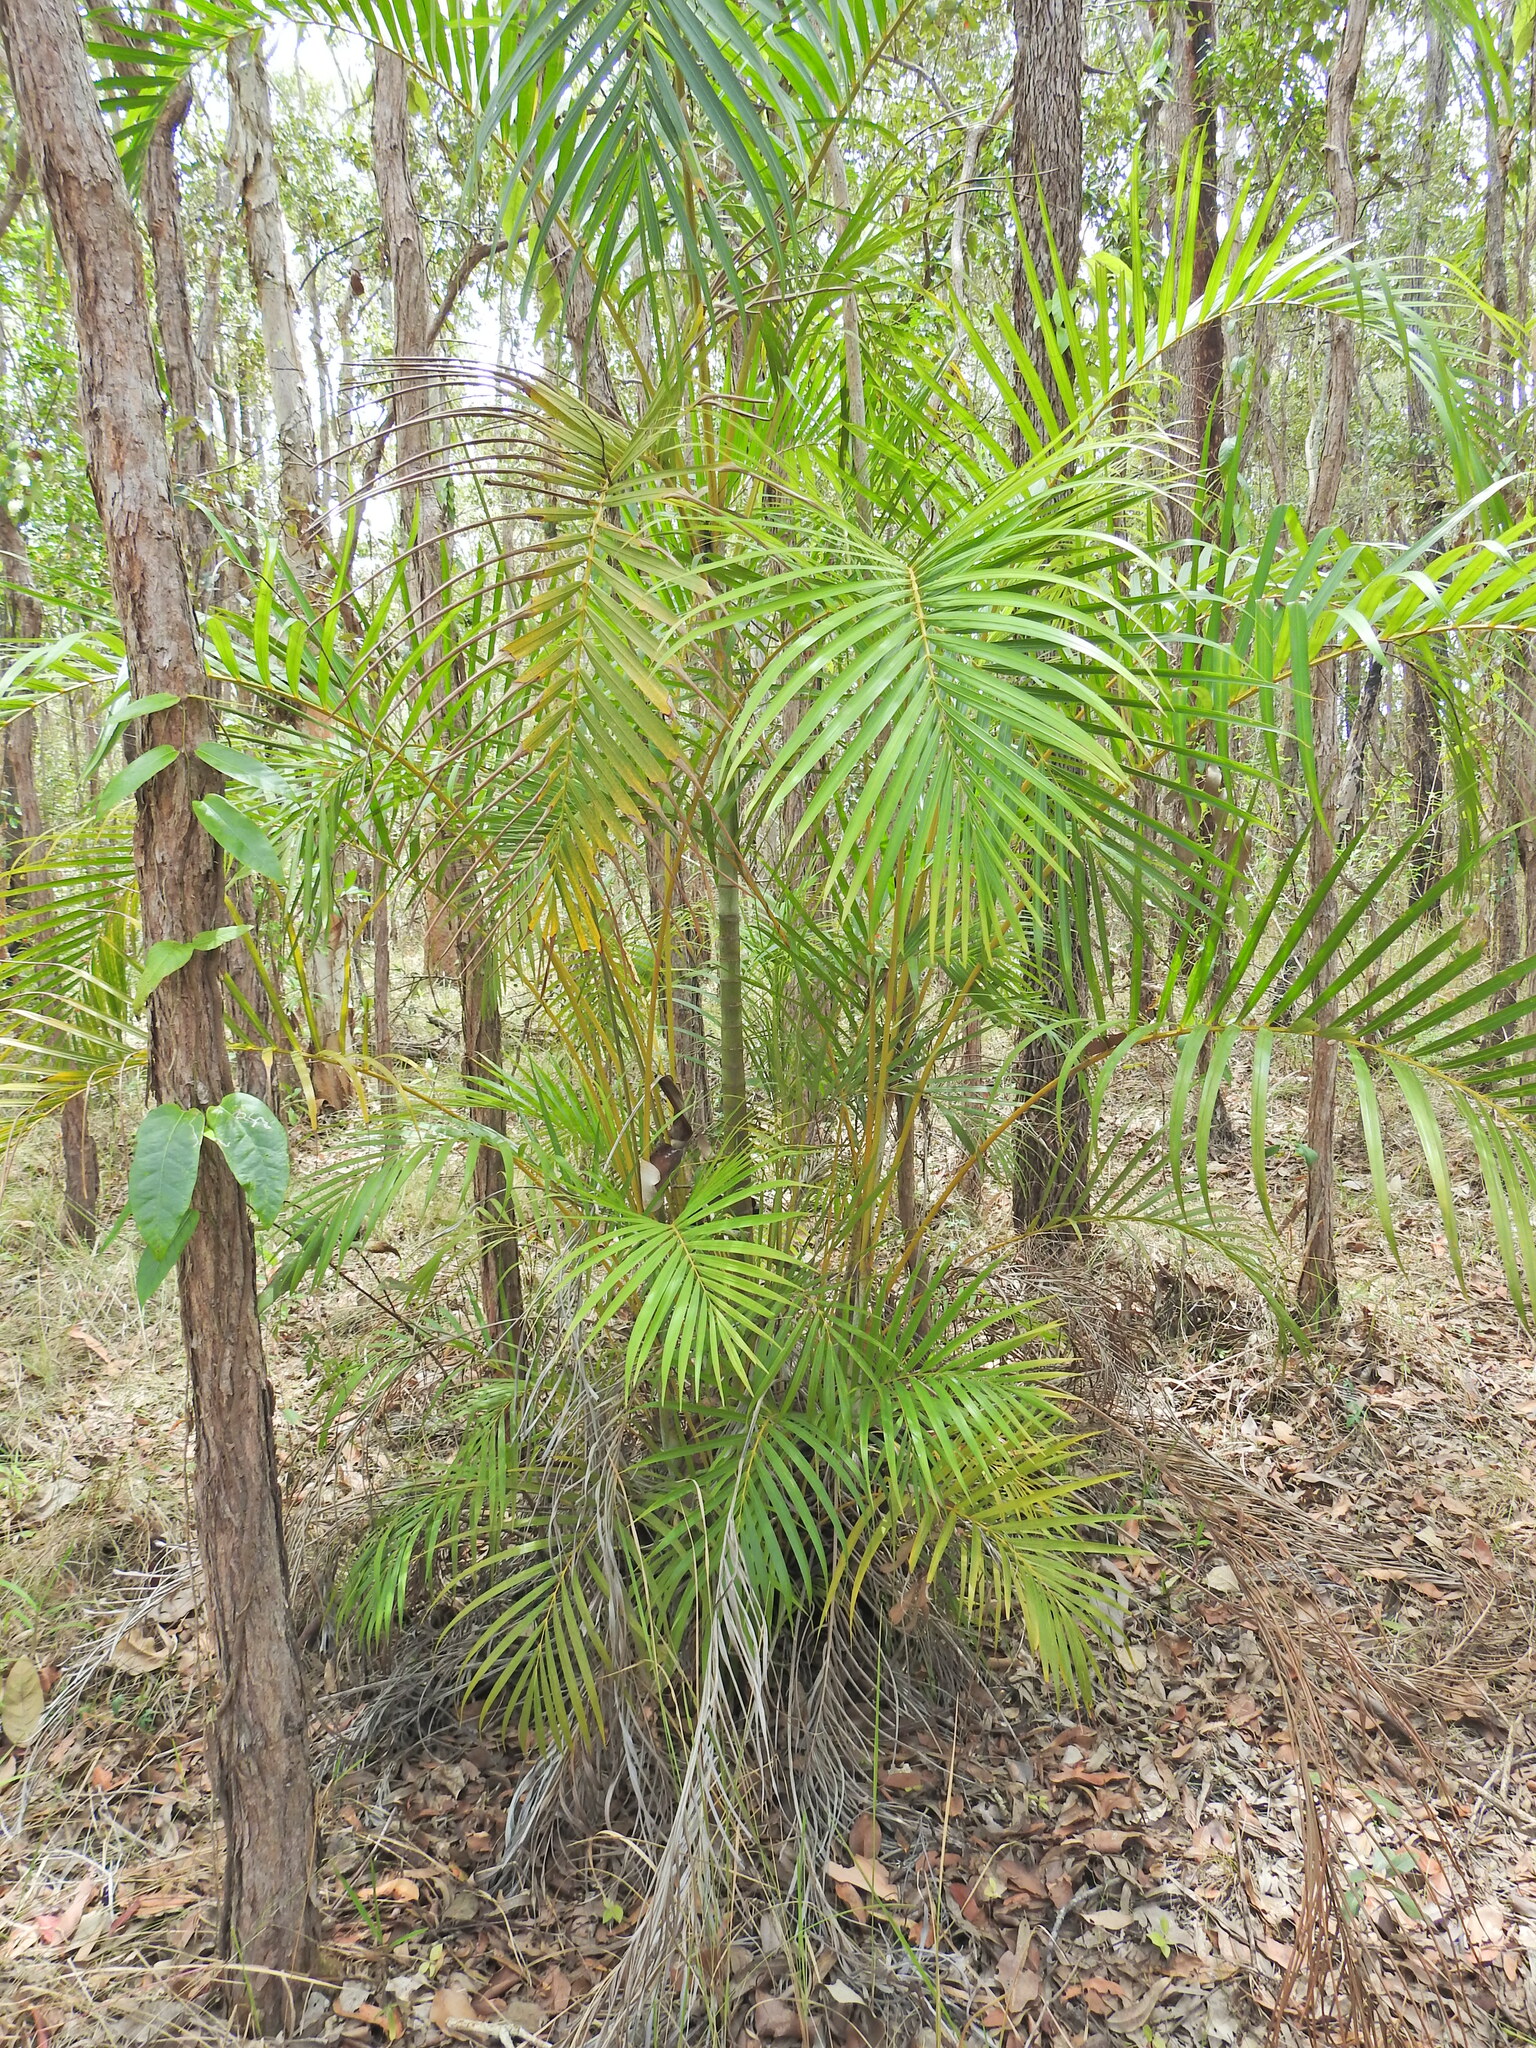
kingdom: Plantae
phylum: Tracheophyta
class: Liliopsida
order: Arecales
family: Arecaceae
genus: Dypsis
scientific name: Dypsis lutescens
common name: Yellow butterfly palm
